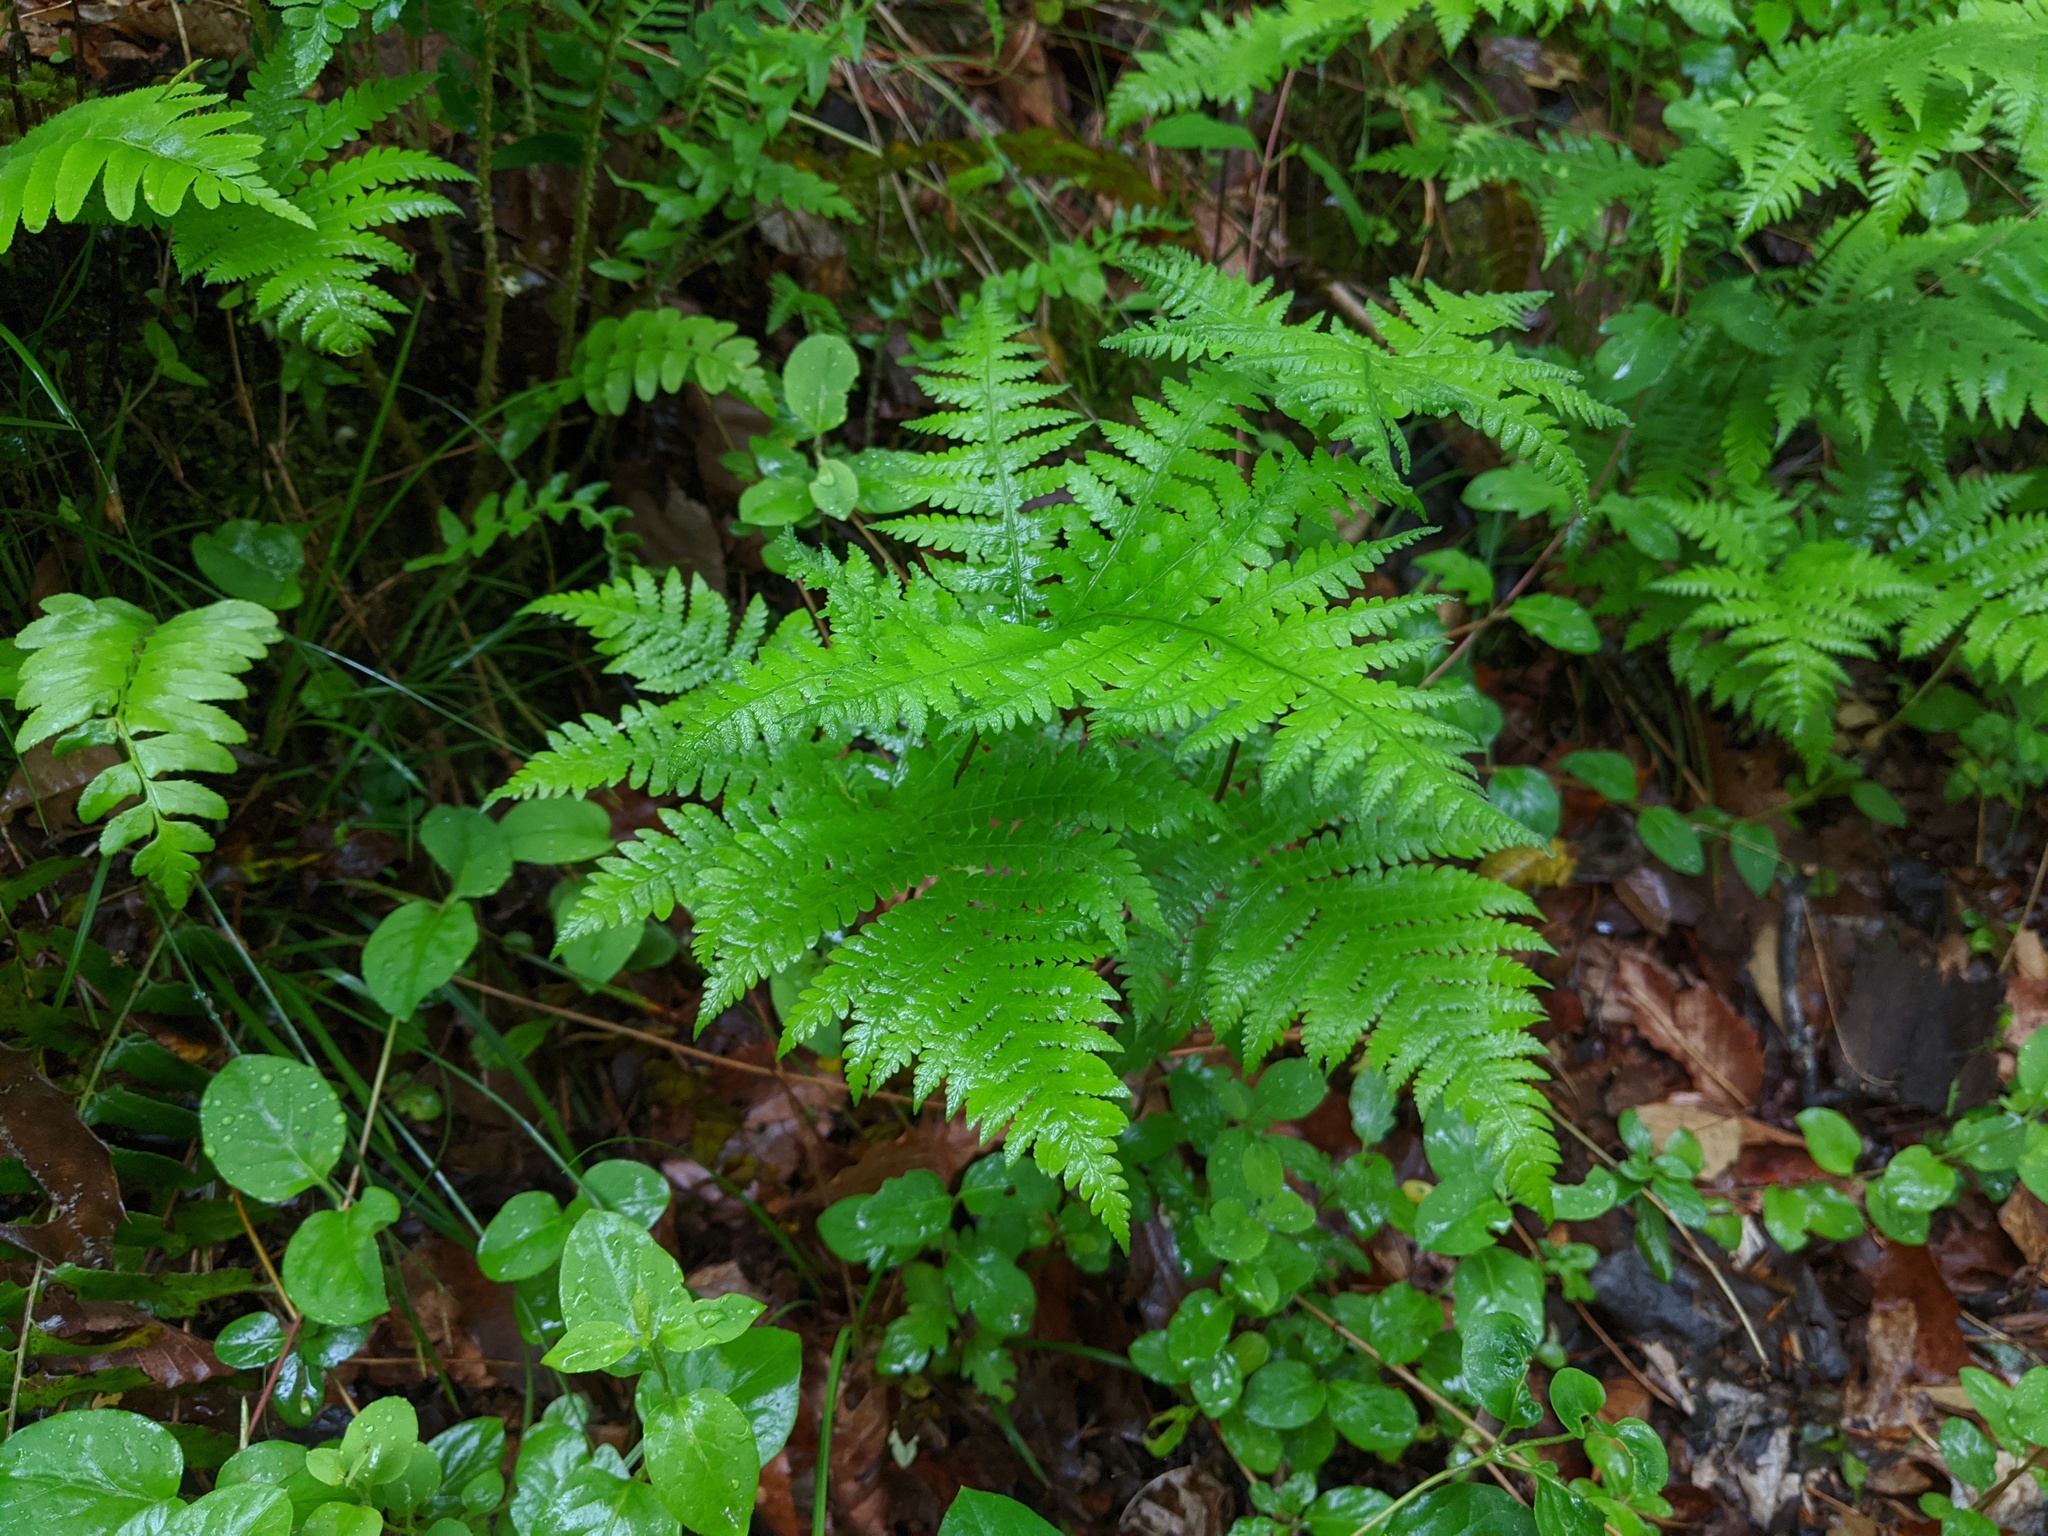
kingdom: Plantae
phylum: Tracheophyta
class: Polypodiopsida
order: Polypodiales
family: Thelypteridaceae
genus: Phegopteris
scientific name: Phegopteris hexagonoptera
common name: Broad beech fern
